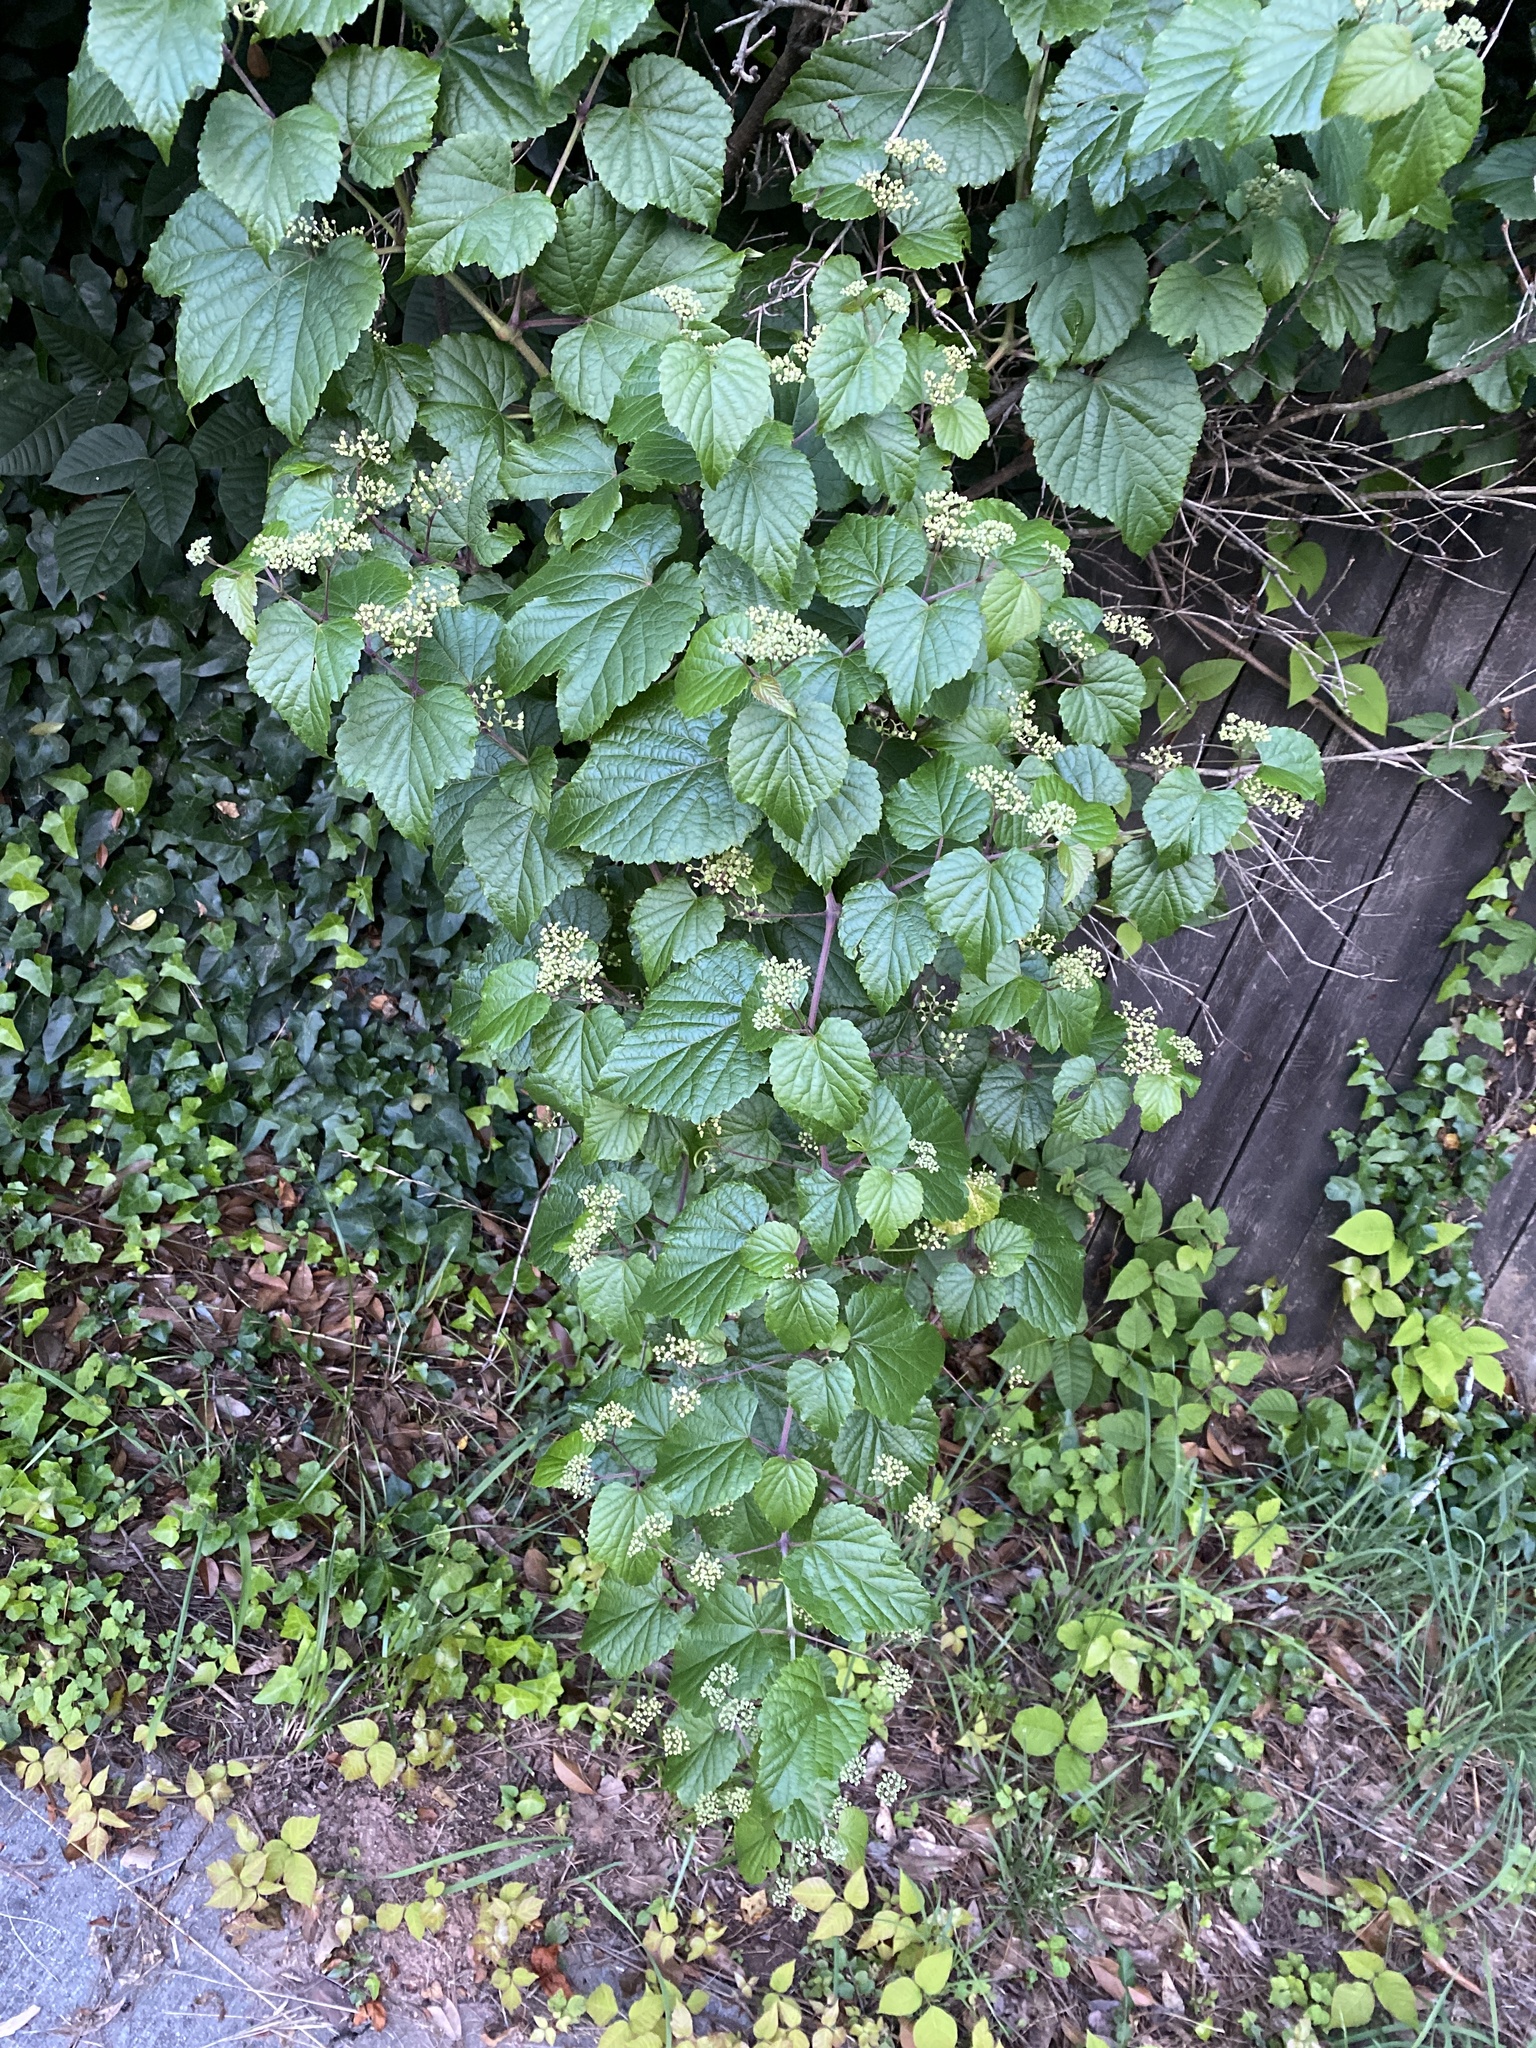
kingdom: Plantae
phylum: Tracheophyta
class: Magnoliopsida
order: Vitales
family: Vitaceae
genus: Ampelopsis
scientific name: Ampelopsis glandulosa
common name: Amur peppervine
